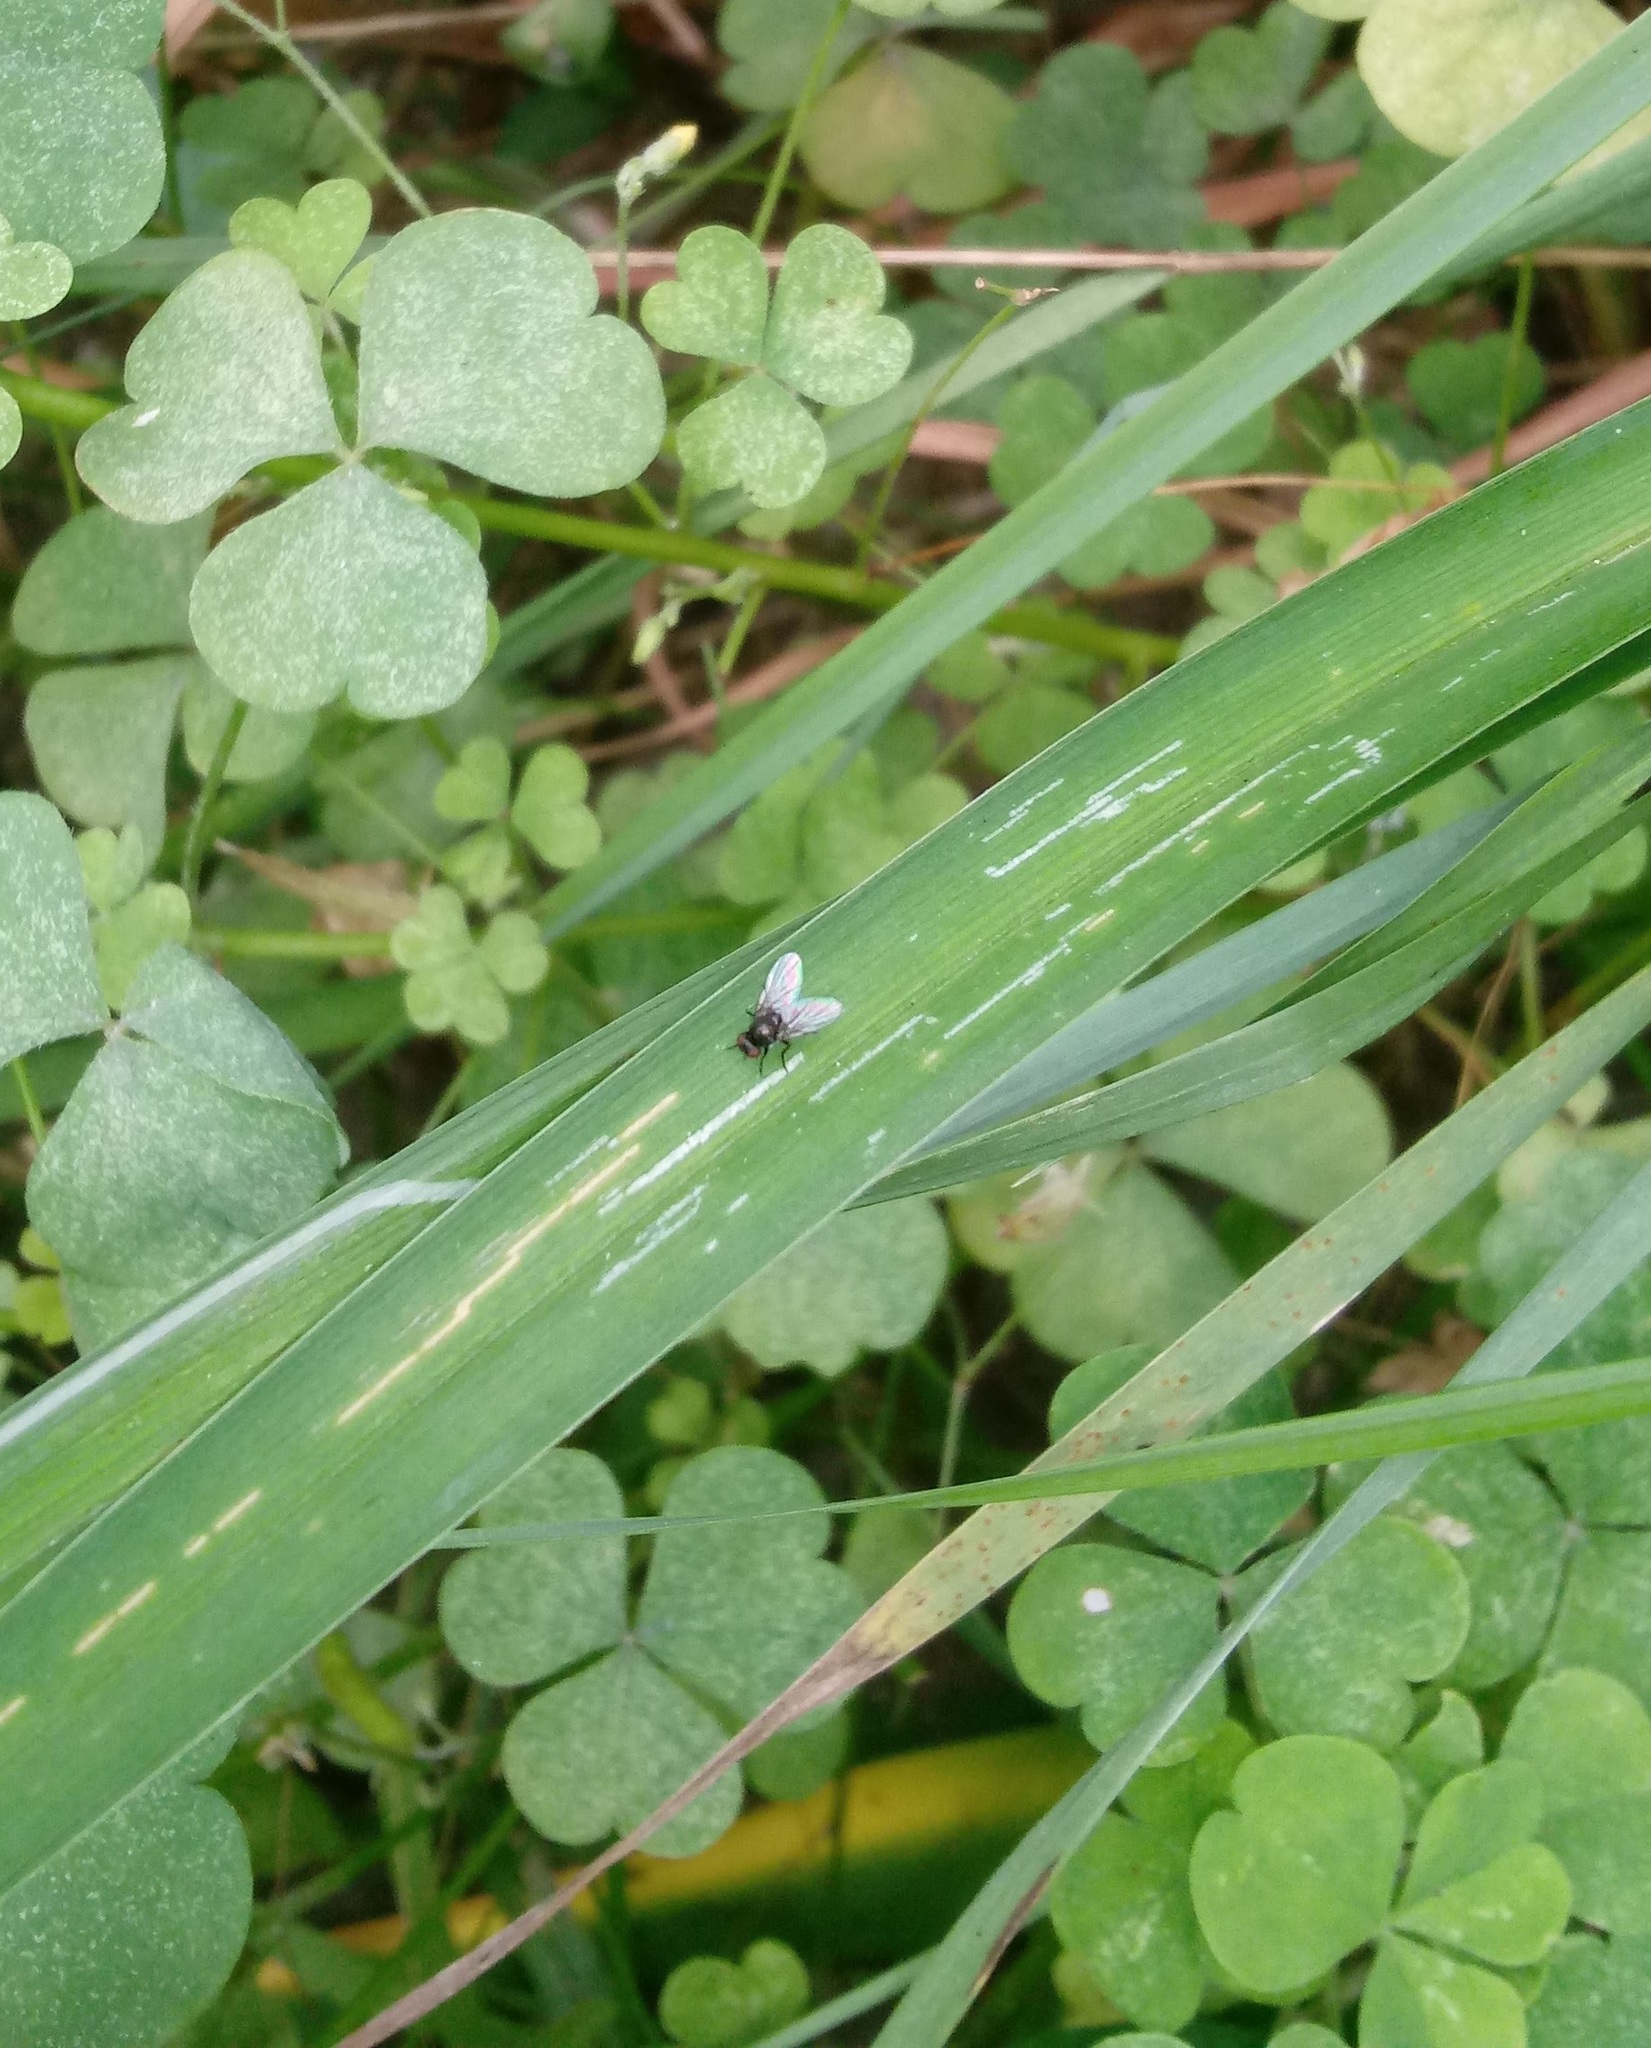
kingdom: Animalia
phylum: Arthropoda
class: Insecta
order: Diptera
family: Agromyzidae
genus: Ophiomyia
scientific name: Ophiomyia kwansonis
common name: Daylily leafminer
